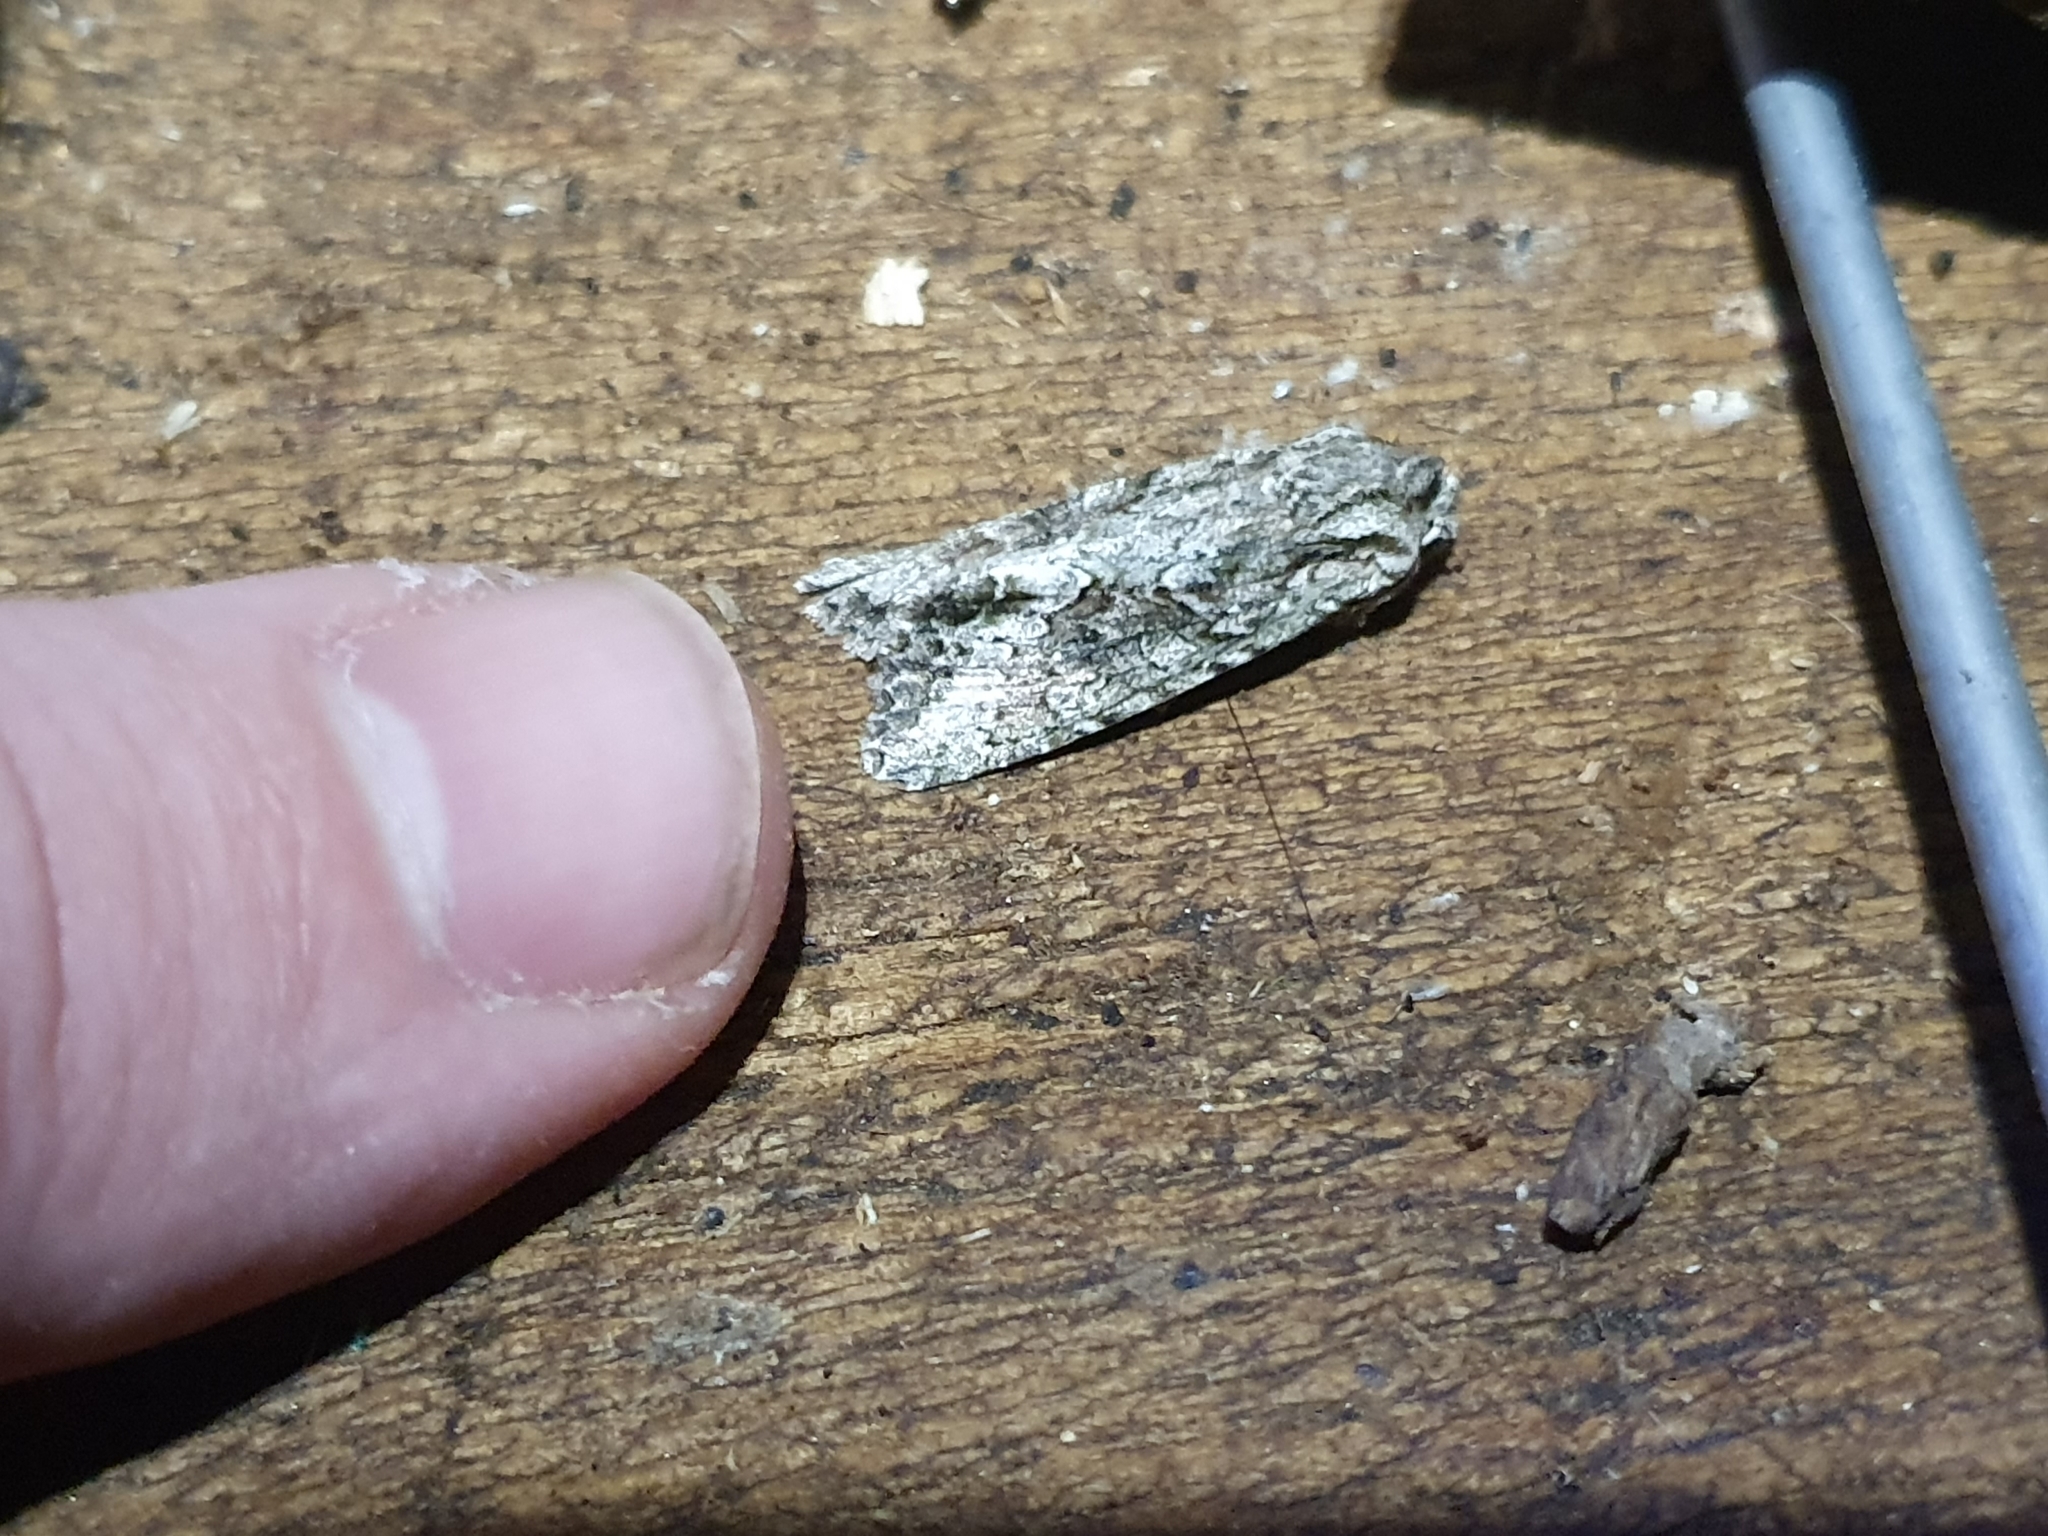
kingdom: Animalia
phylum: Arthropoda
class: Insecta
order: Lepidoptera
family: Noctuidae
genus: Ichneutica
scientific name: Ichneutica mutans
